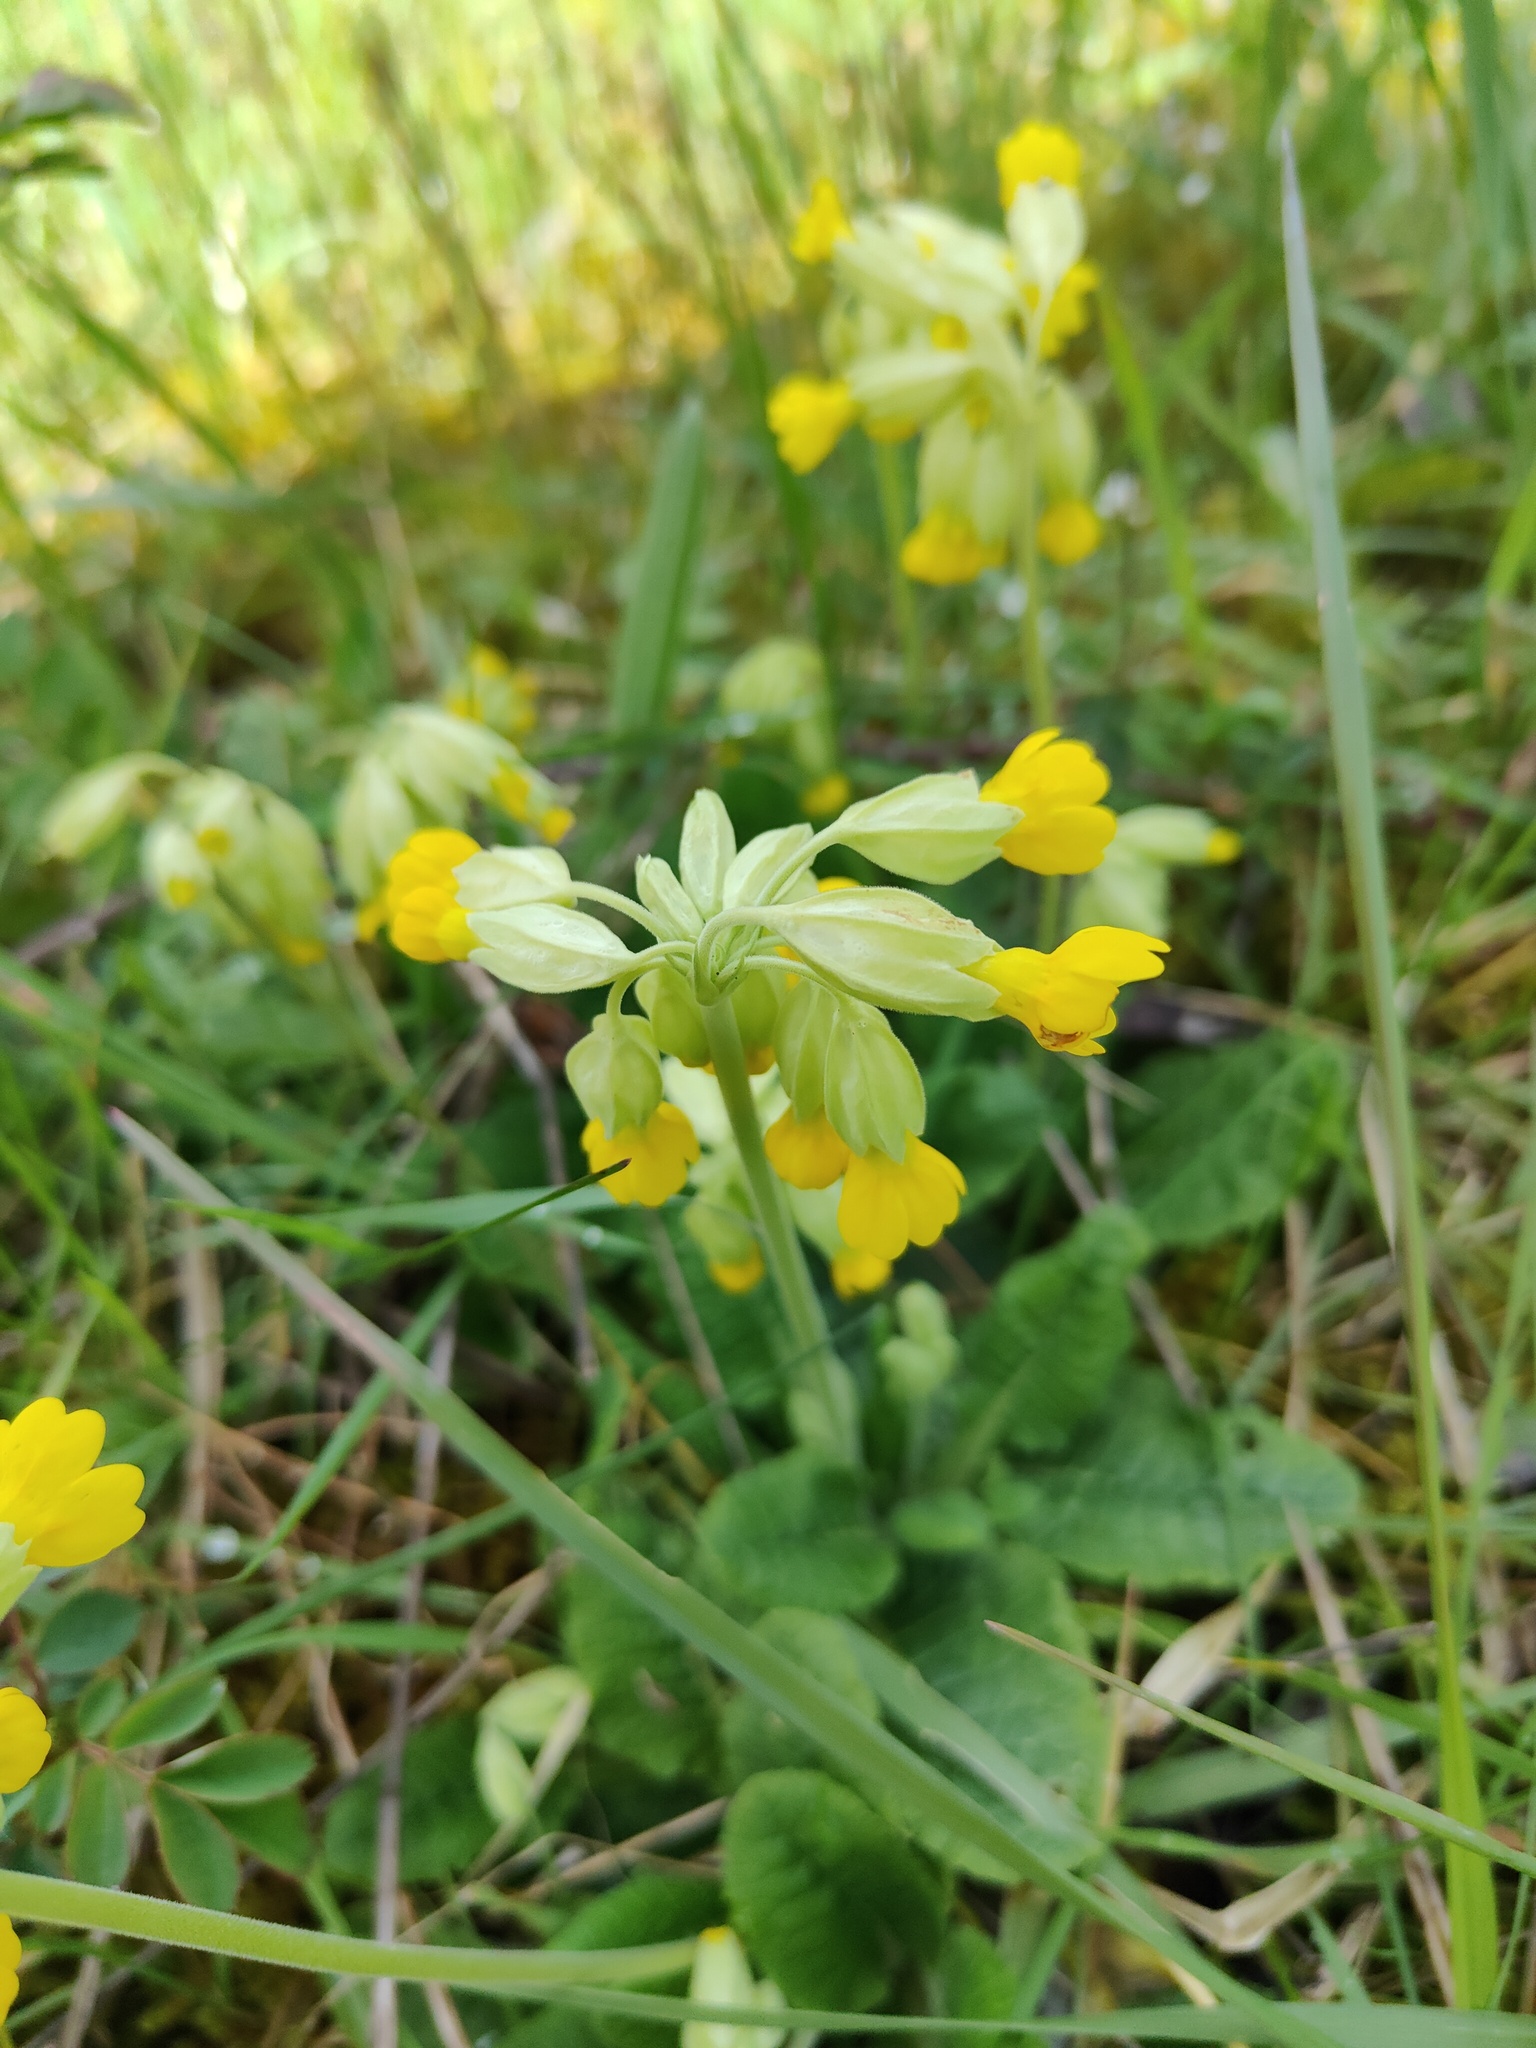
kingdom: Plantae
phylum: Tracheophyta
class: Magnoliopsida
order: Ericales
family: Primulaceae
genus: Primula
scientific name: Primula veris
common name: Cowslip
